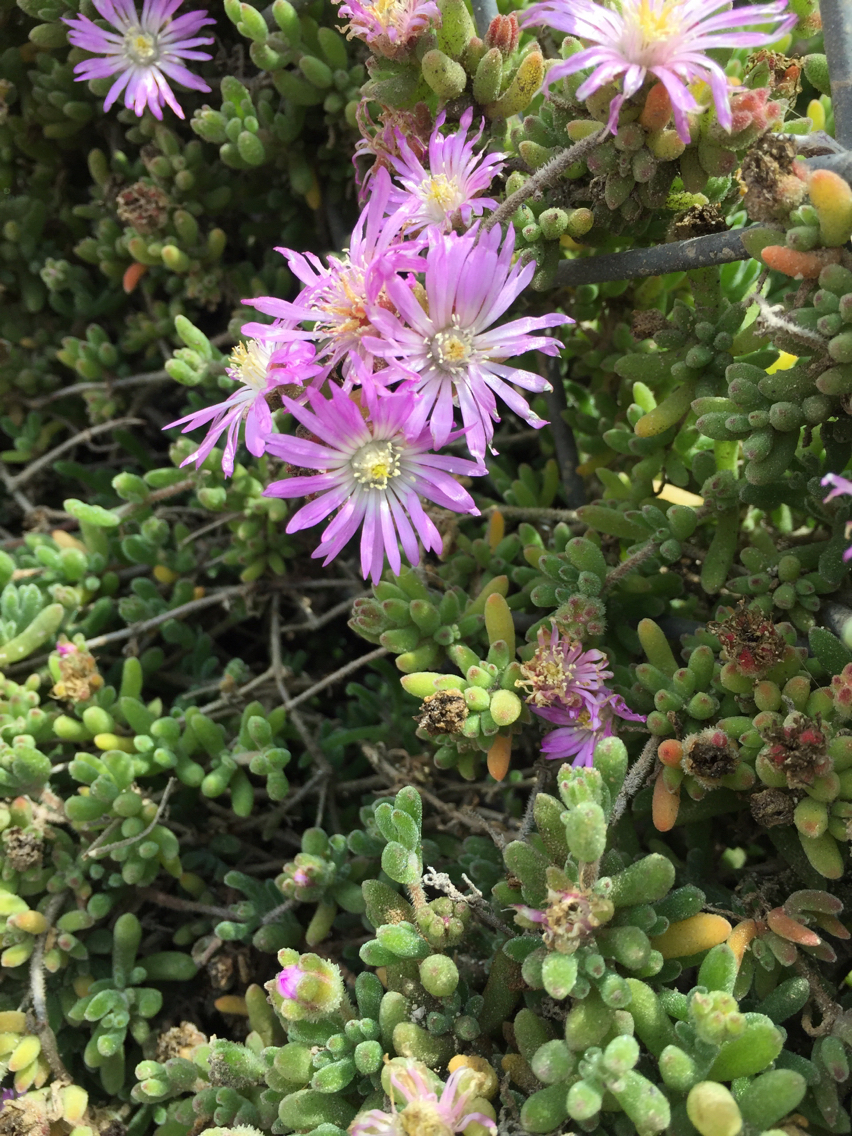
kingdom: Plantae
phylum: Tracheophyta
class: Magnoliopsida
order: Caryophyllales
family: Aizoaceae
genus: Drosanthemum
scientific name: Drosanthemum floribundum
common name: Pale dewplant
